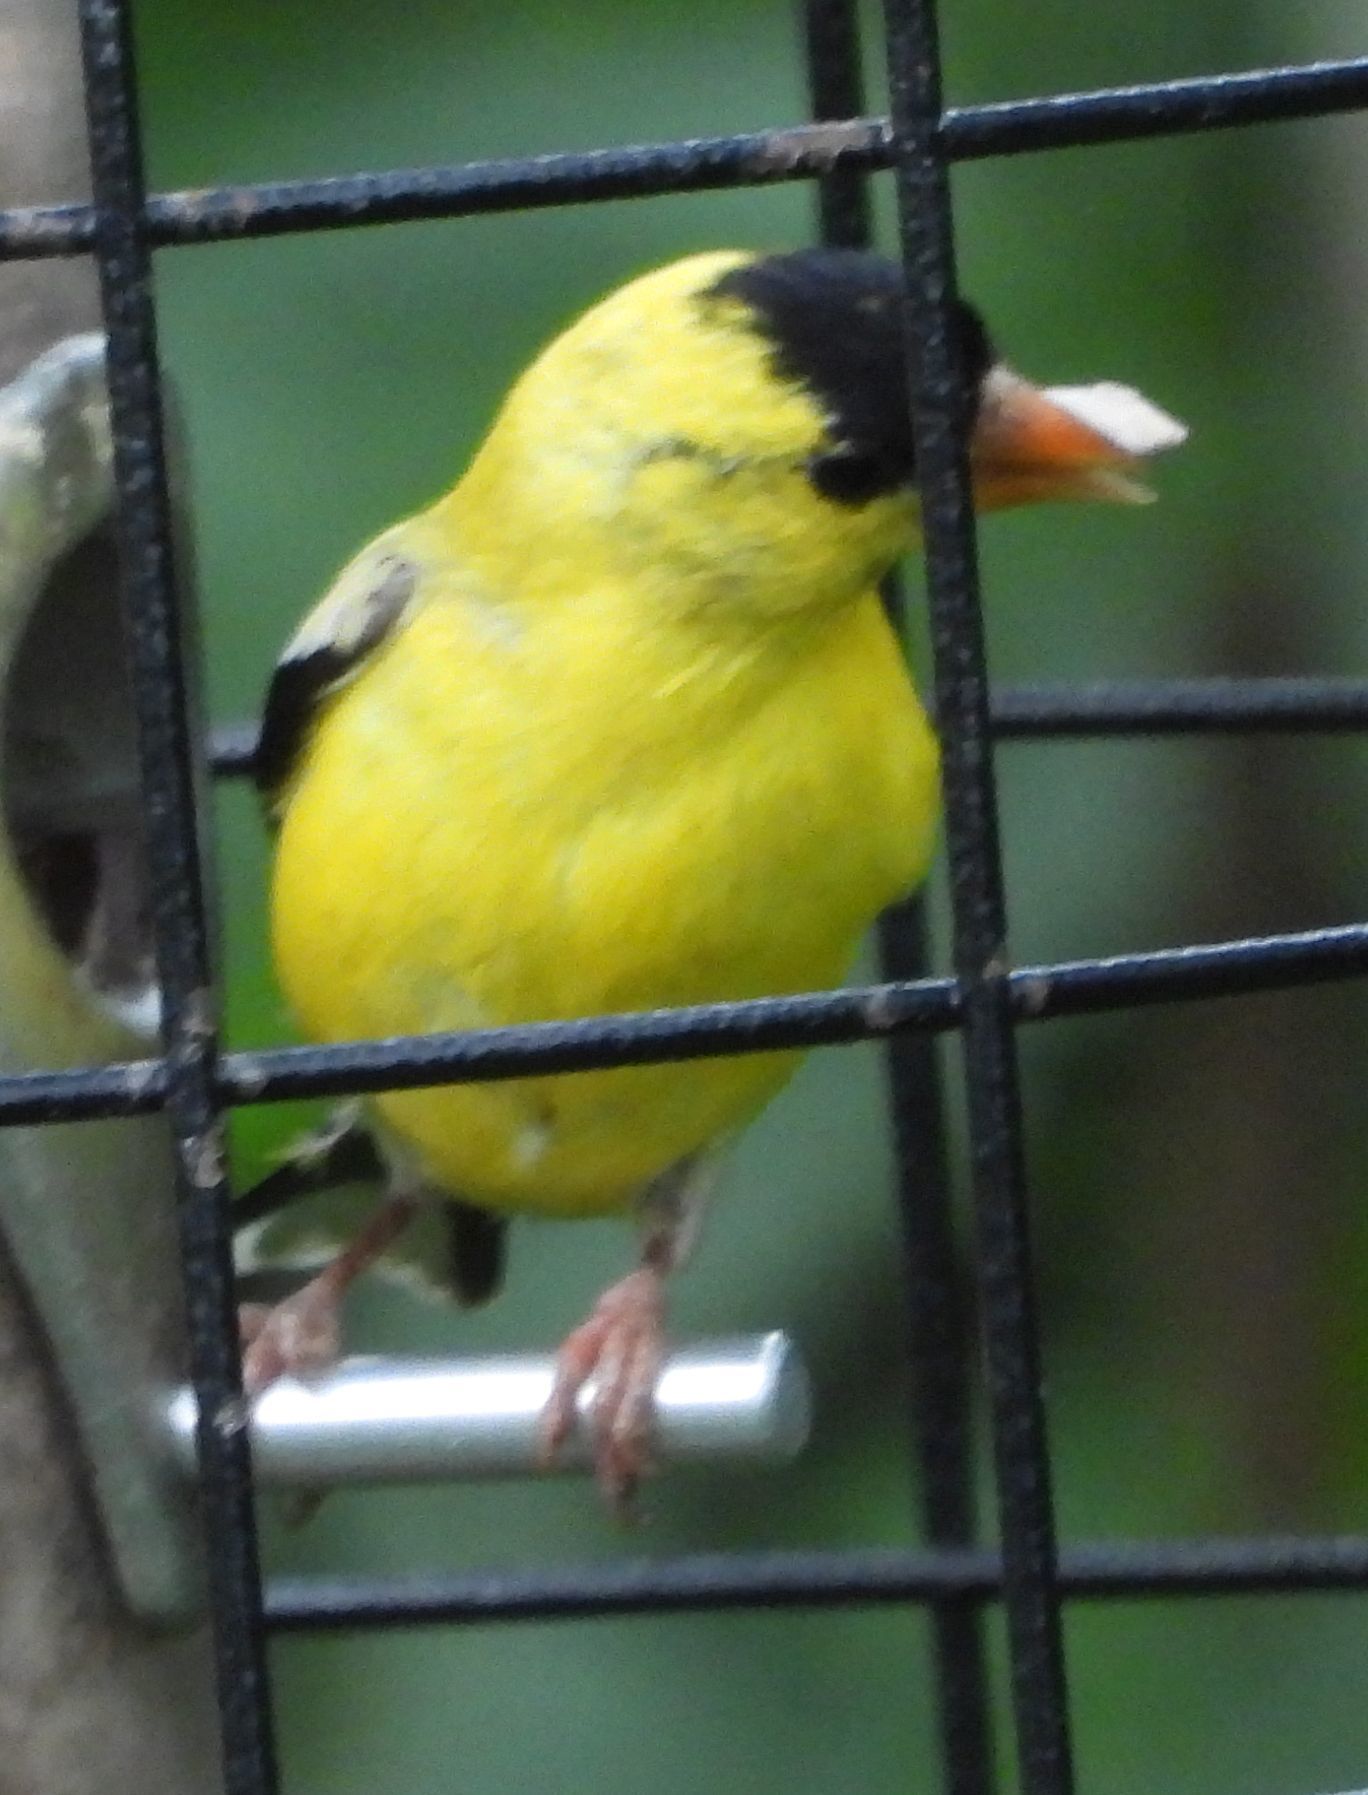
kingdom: Animalia
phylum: Chordata
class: Aves
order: Passeriformes
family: Fringillidae
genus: Spinus
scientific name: Spinus tristis
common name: American goldfinch
